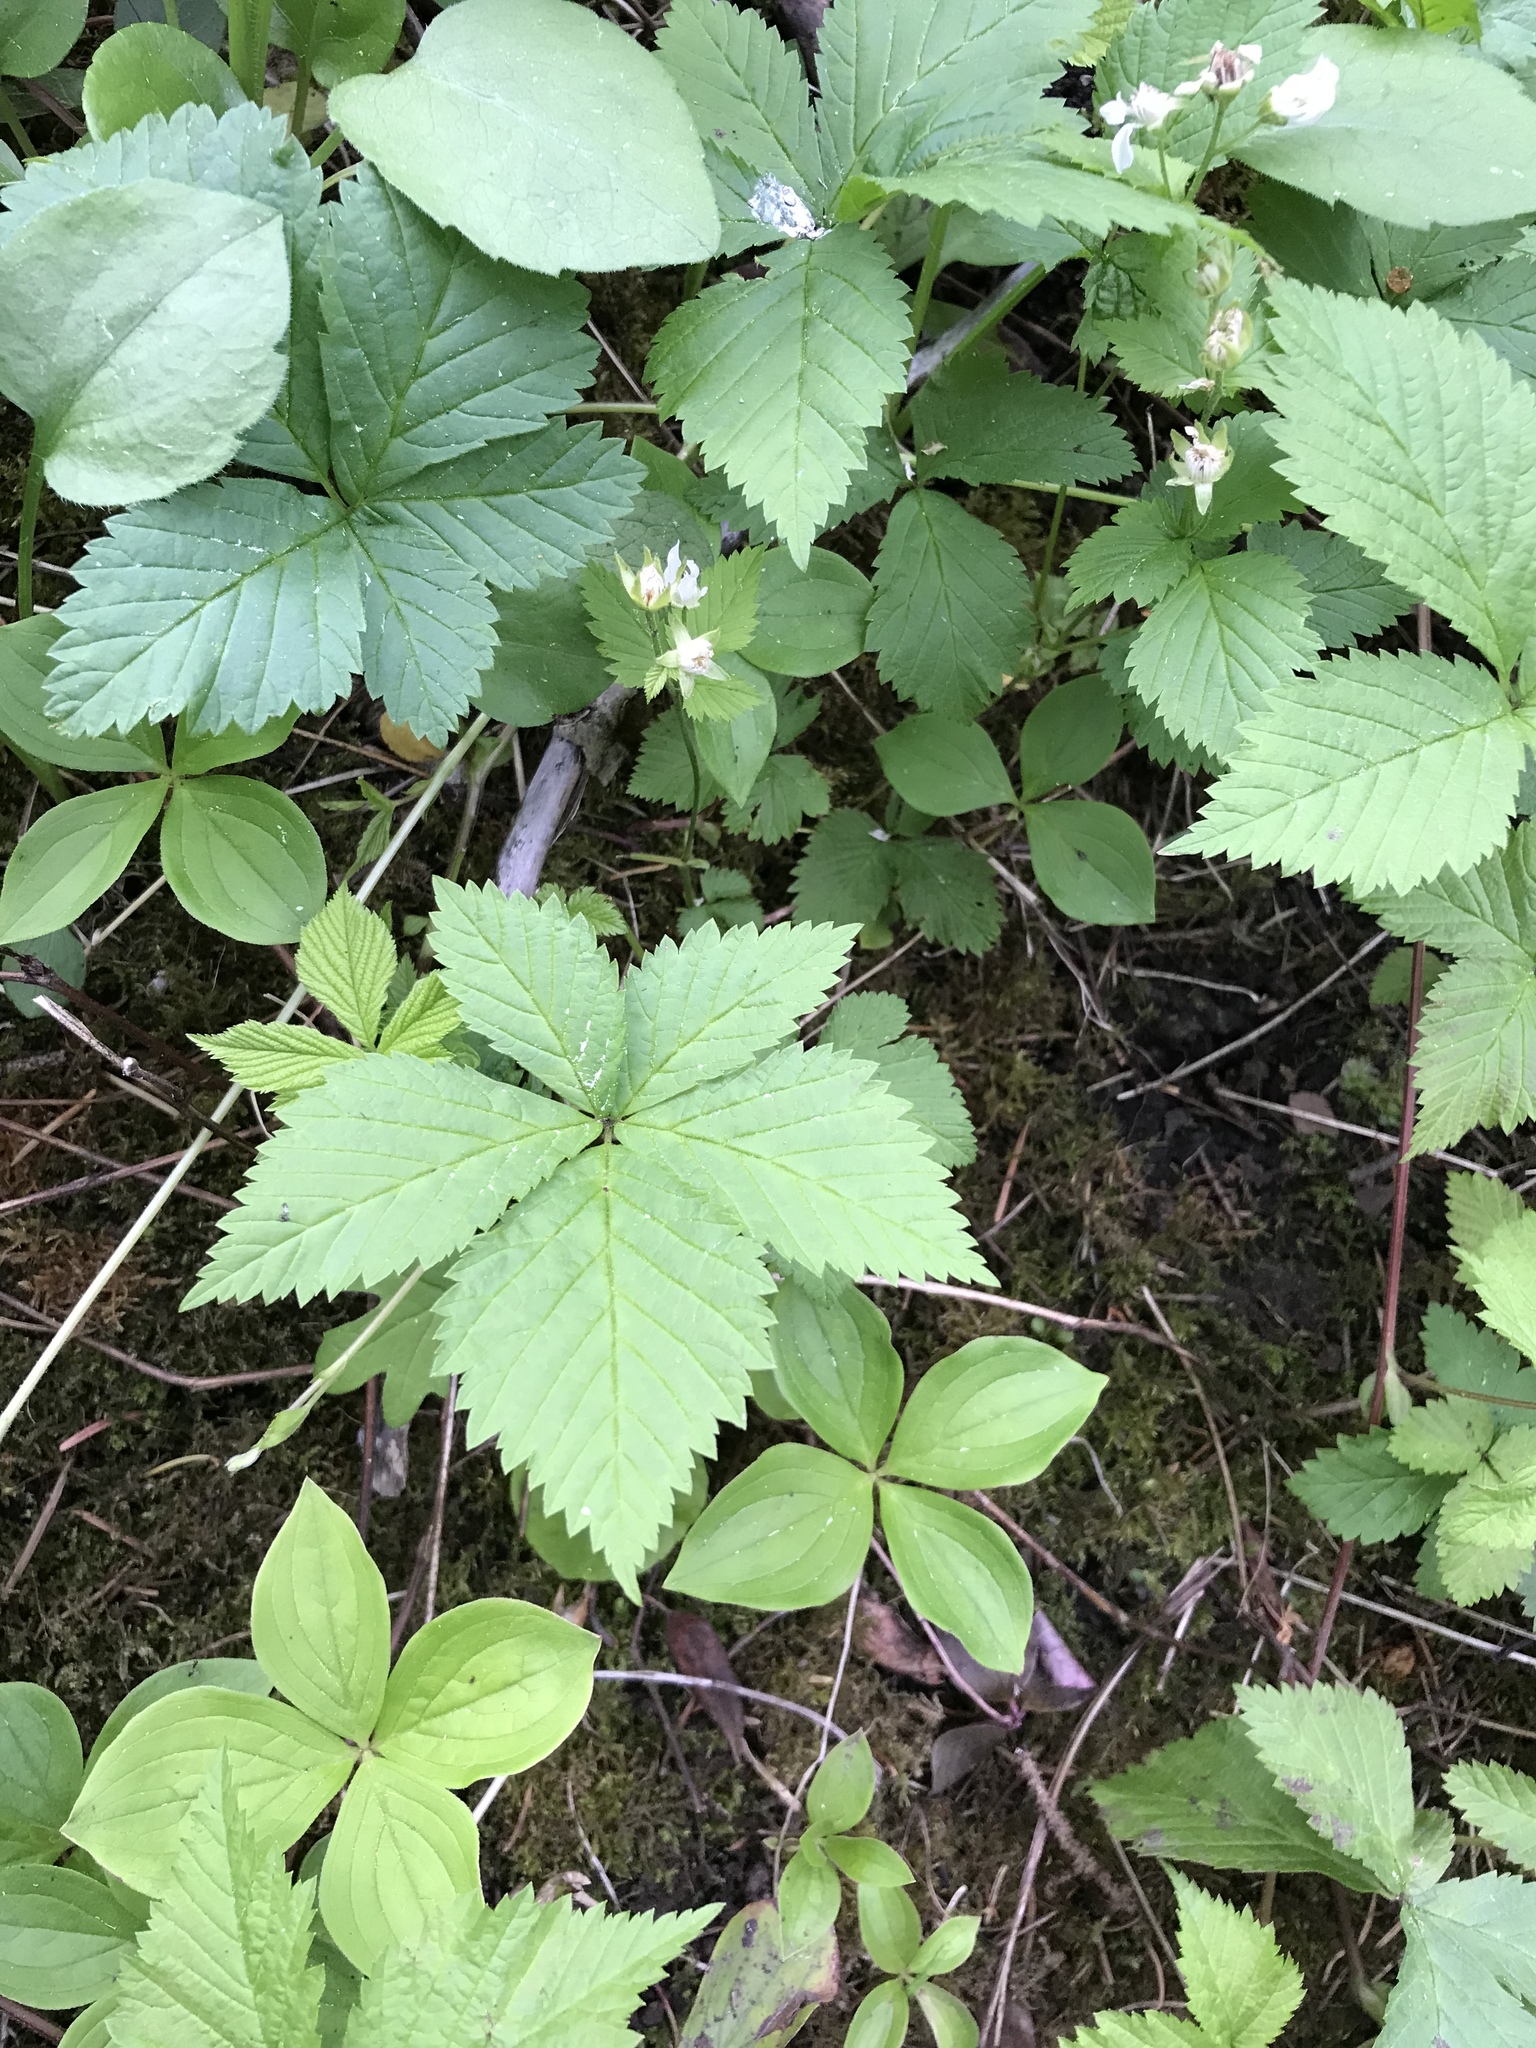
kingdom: Plantae
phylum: Tracheophyta
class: Magnoliopsida
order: Rosales
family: Rosaceae
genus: Rubus
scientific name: Rubus pedatus
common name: Creeping raspberry
